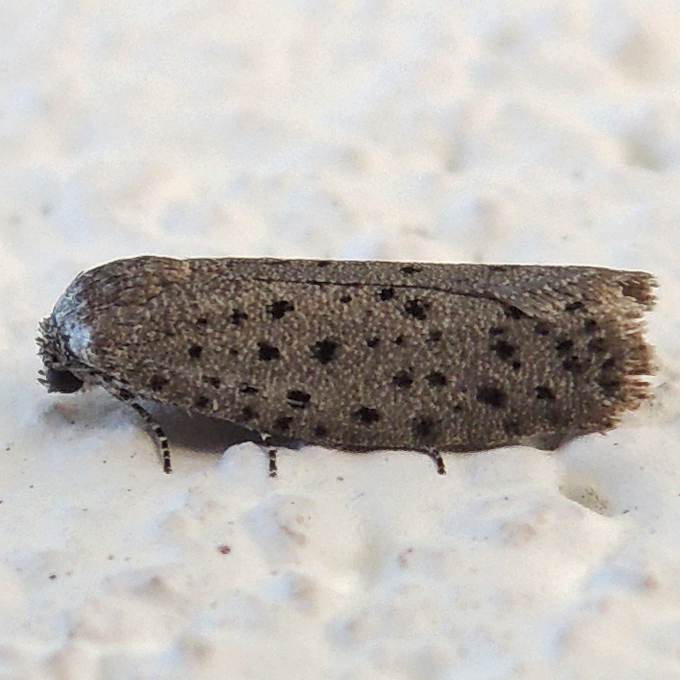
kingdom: Animalia
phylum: Arthropoda
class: Insecta
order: Lepidoptera
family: Galacticidae
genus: Homadaula
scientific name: Homadaula anisocentra
